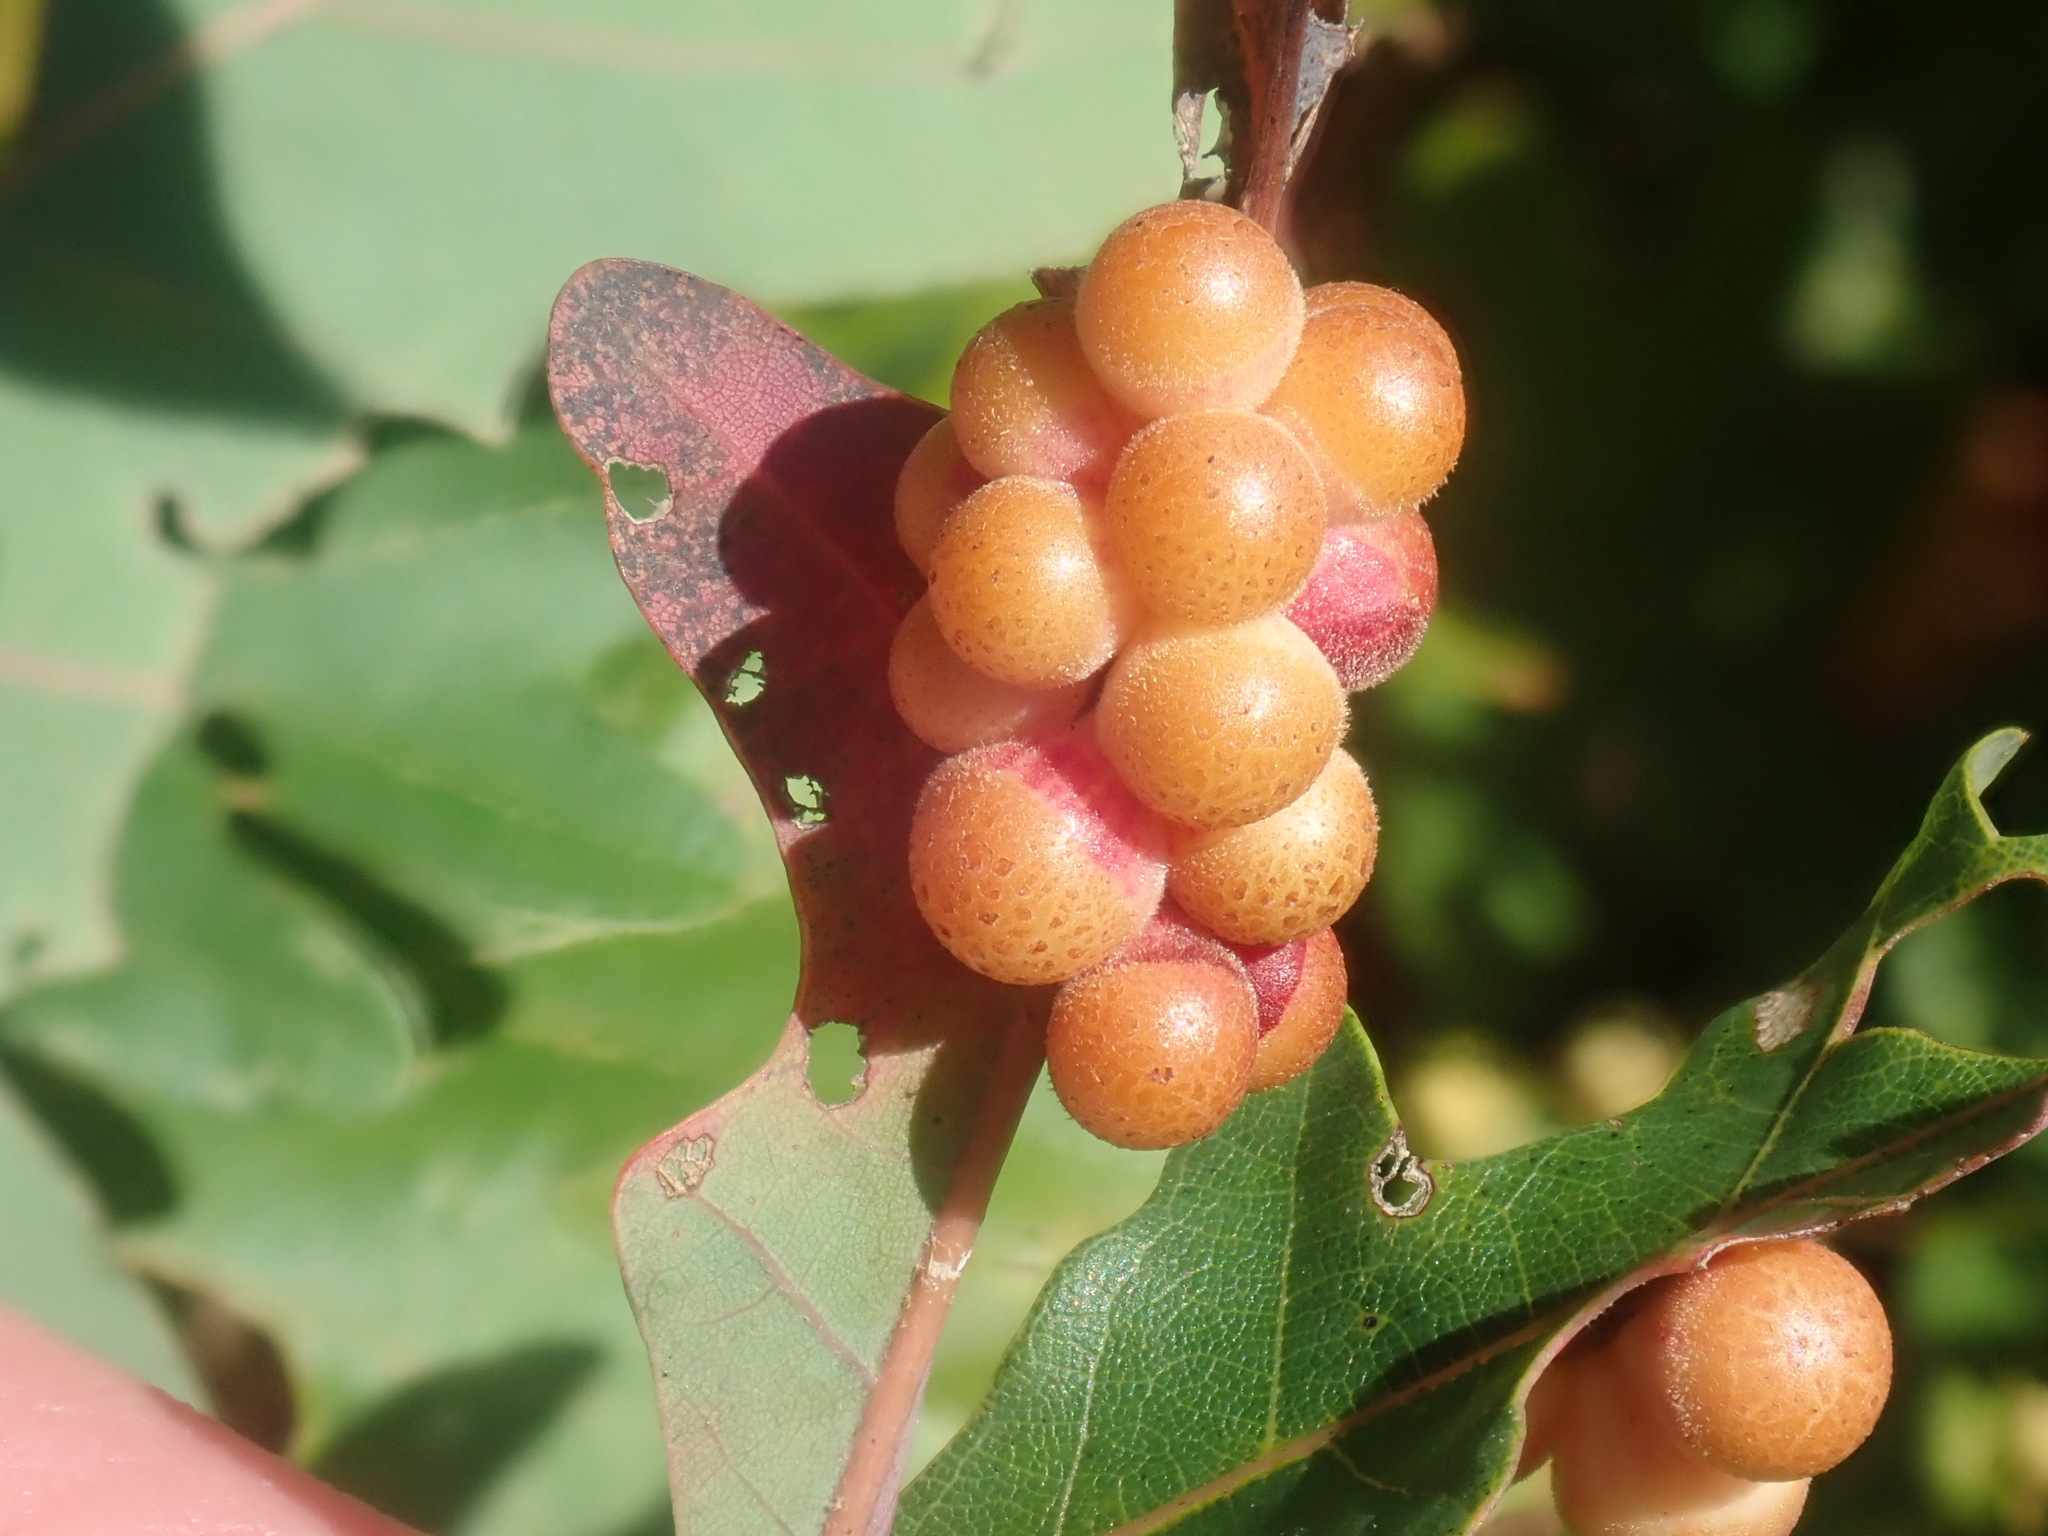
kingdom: Animalia
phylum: Arthropoda
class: Insecta
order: Hymenoptera
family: Cynipidae
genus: Andricus
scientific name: Andricus
